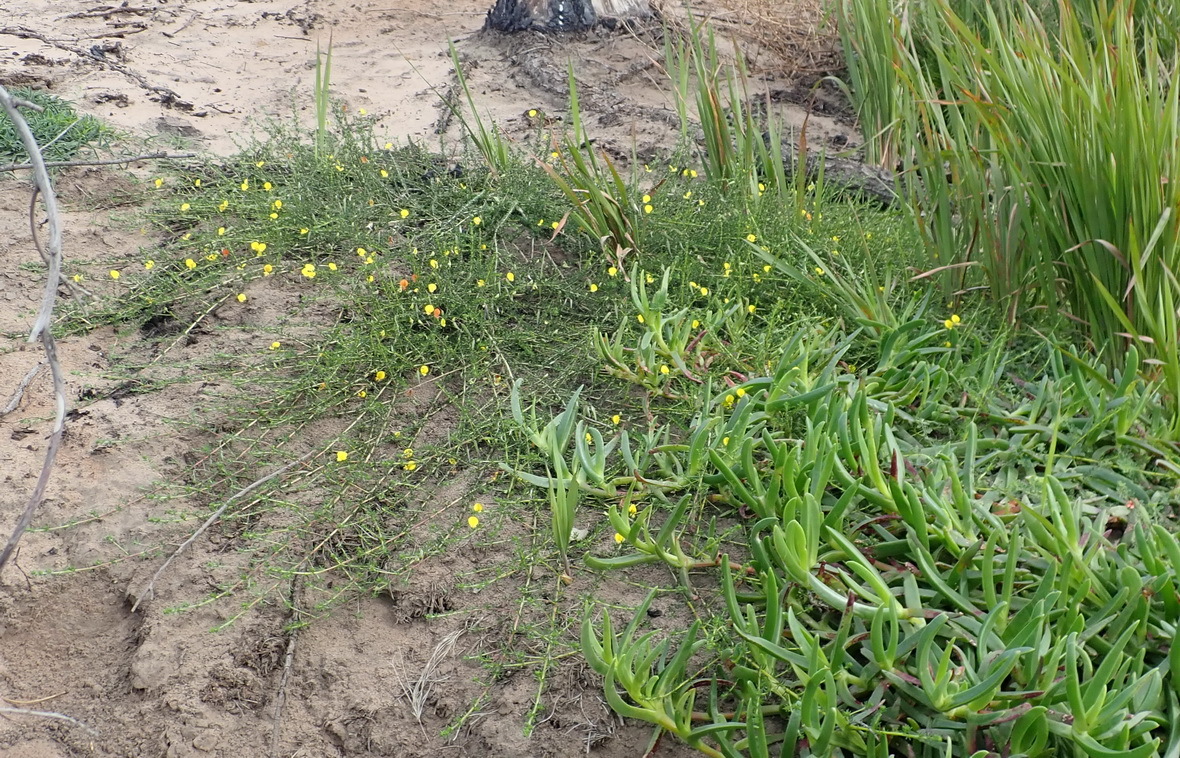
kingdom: Plantae
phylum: Tracheophyta
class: Magnoliopsida
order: Fabales
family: Fabaceae
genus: Aspalathus
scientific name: Aspalathus biflora
